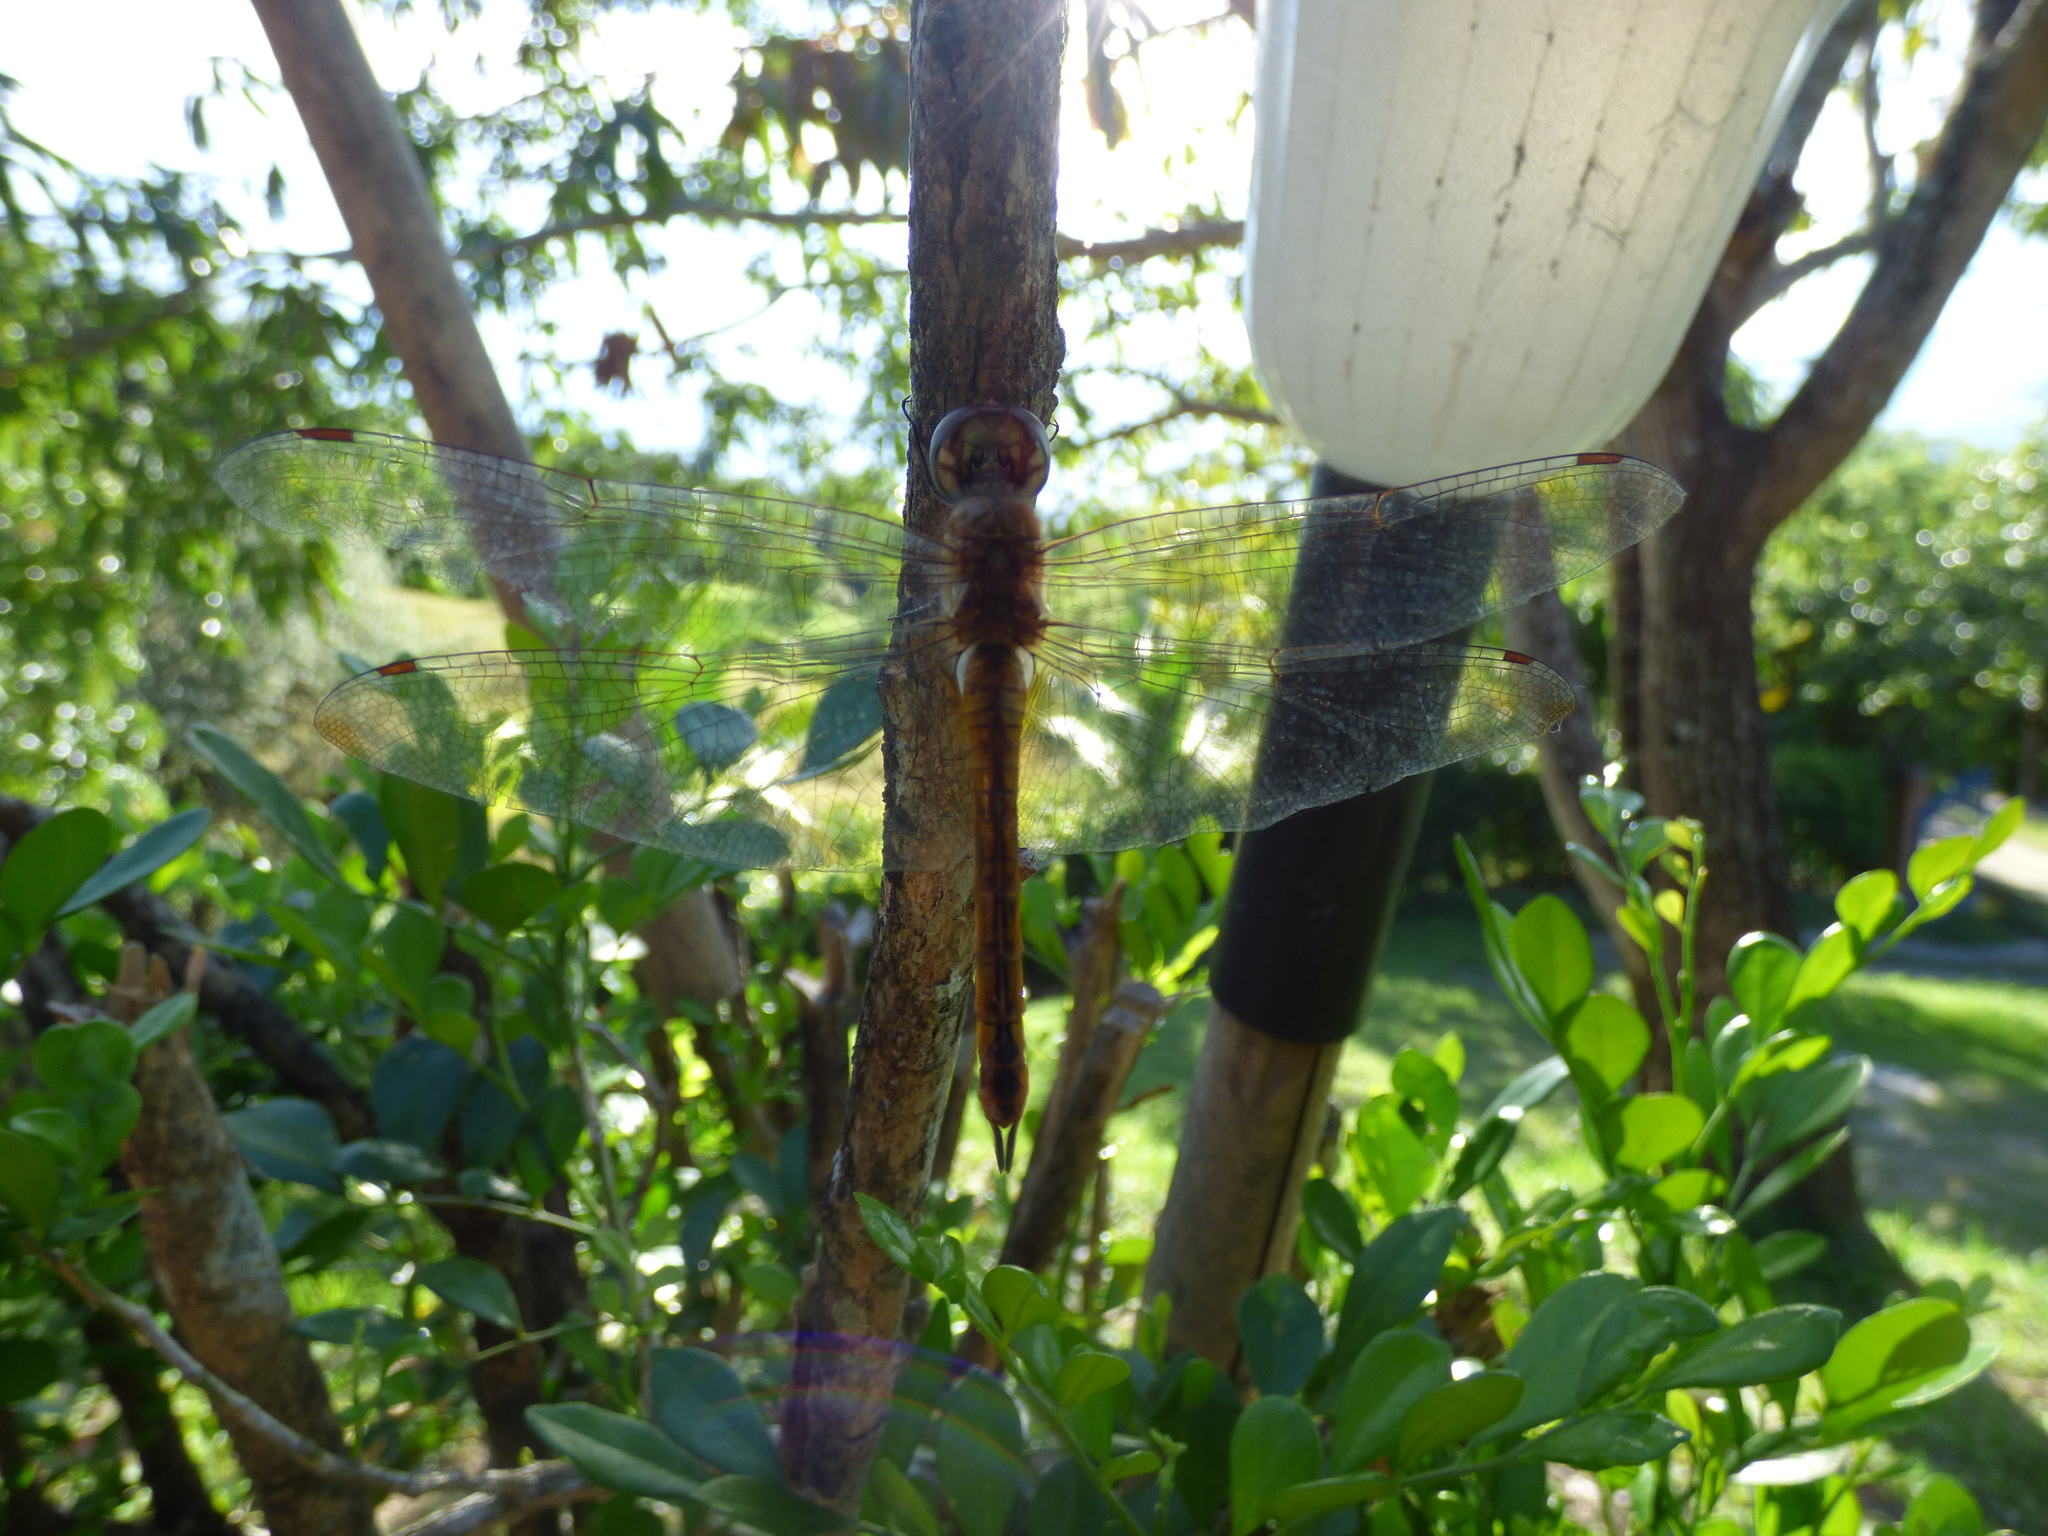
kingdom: Animalia
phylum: Arthropoda
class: Insecta
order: Odonata
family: Libellulidae
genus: Pantala
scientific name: Pantala flavescens
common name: Wandering glider
